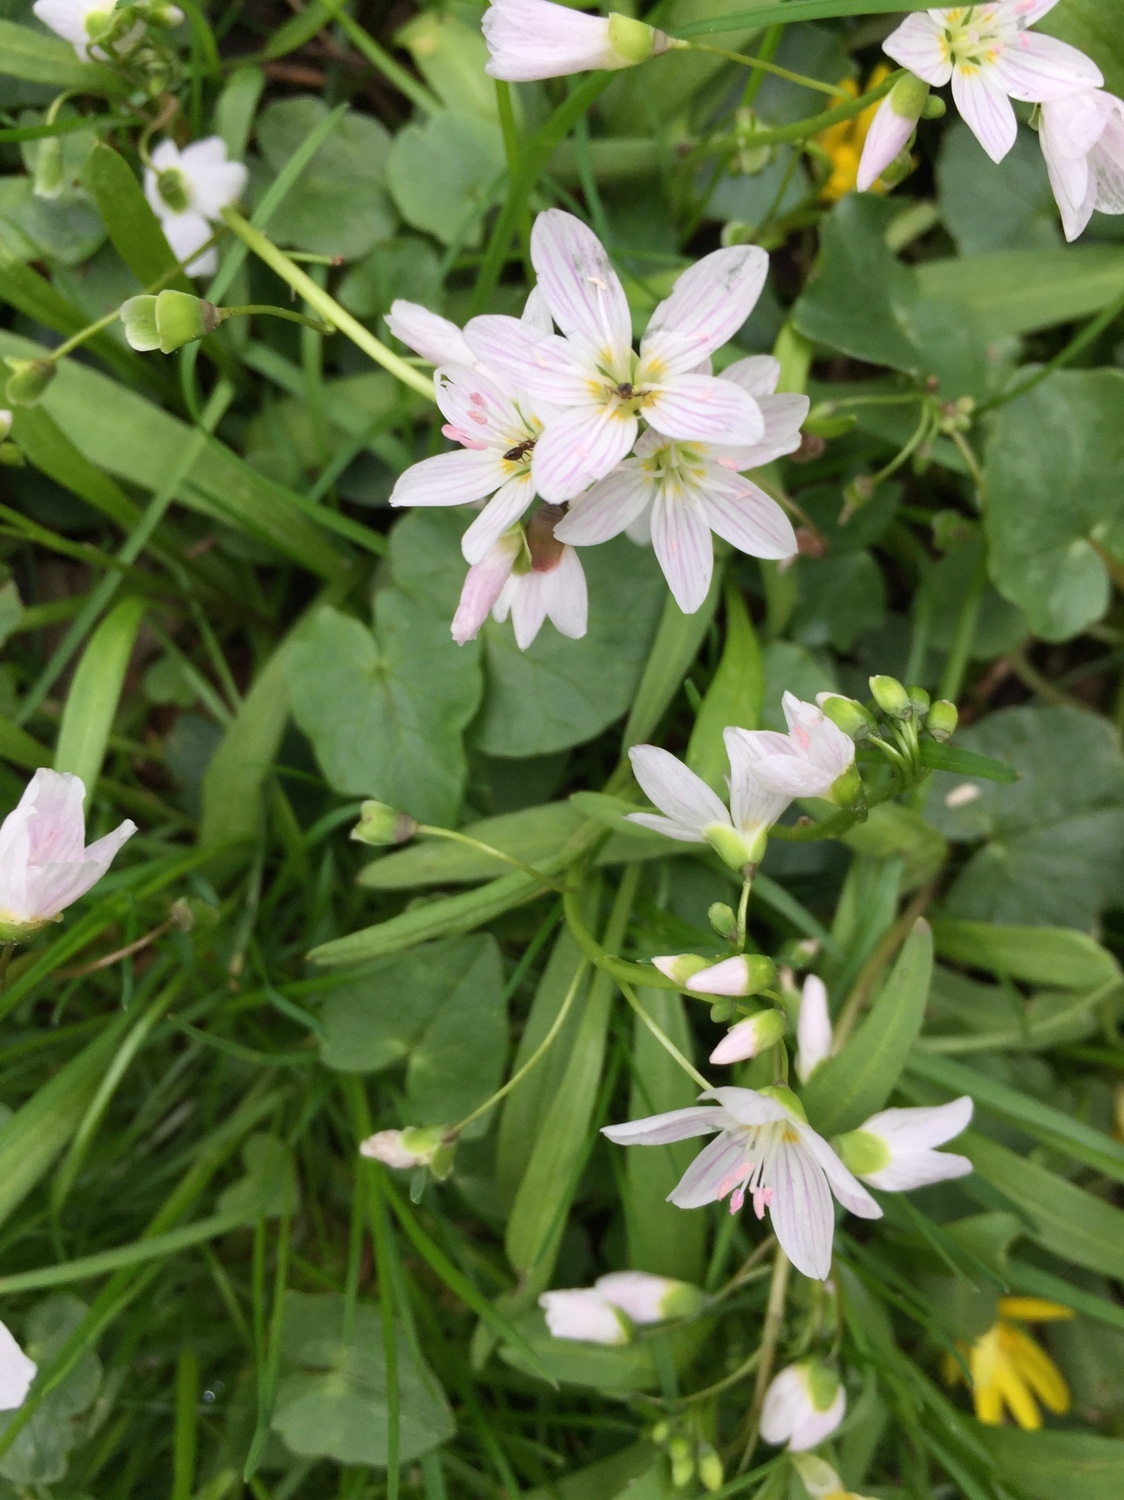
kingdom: Plantae
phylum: Tracheophyta
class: Magnoliopsida
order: Caryophyllales
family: Montiaceae
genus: Claytonia
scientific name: Claytonia virginica
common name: Virginia springbeauty
